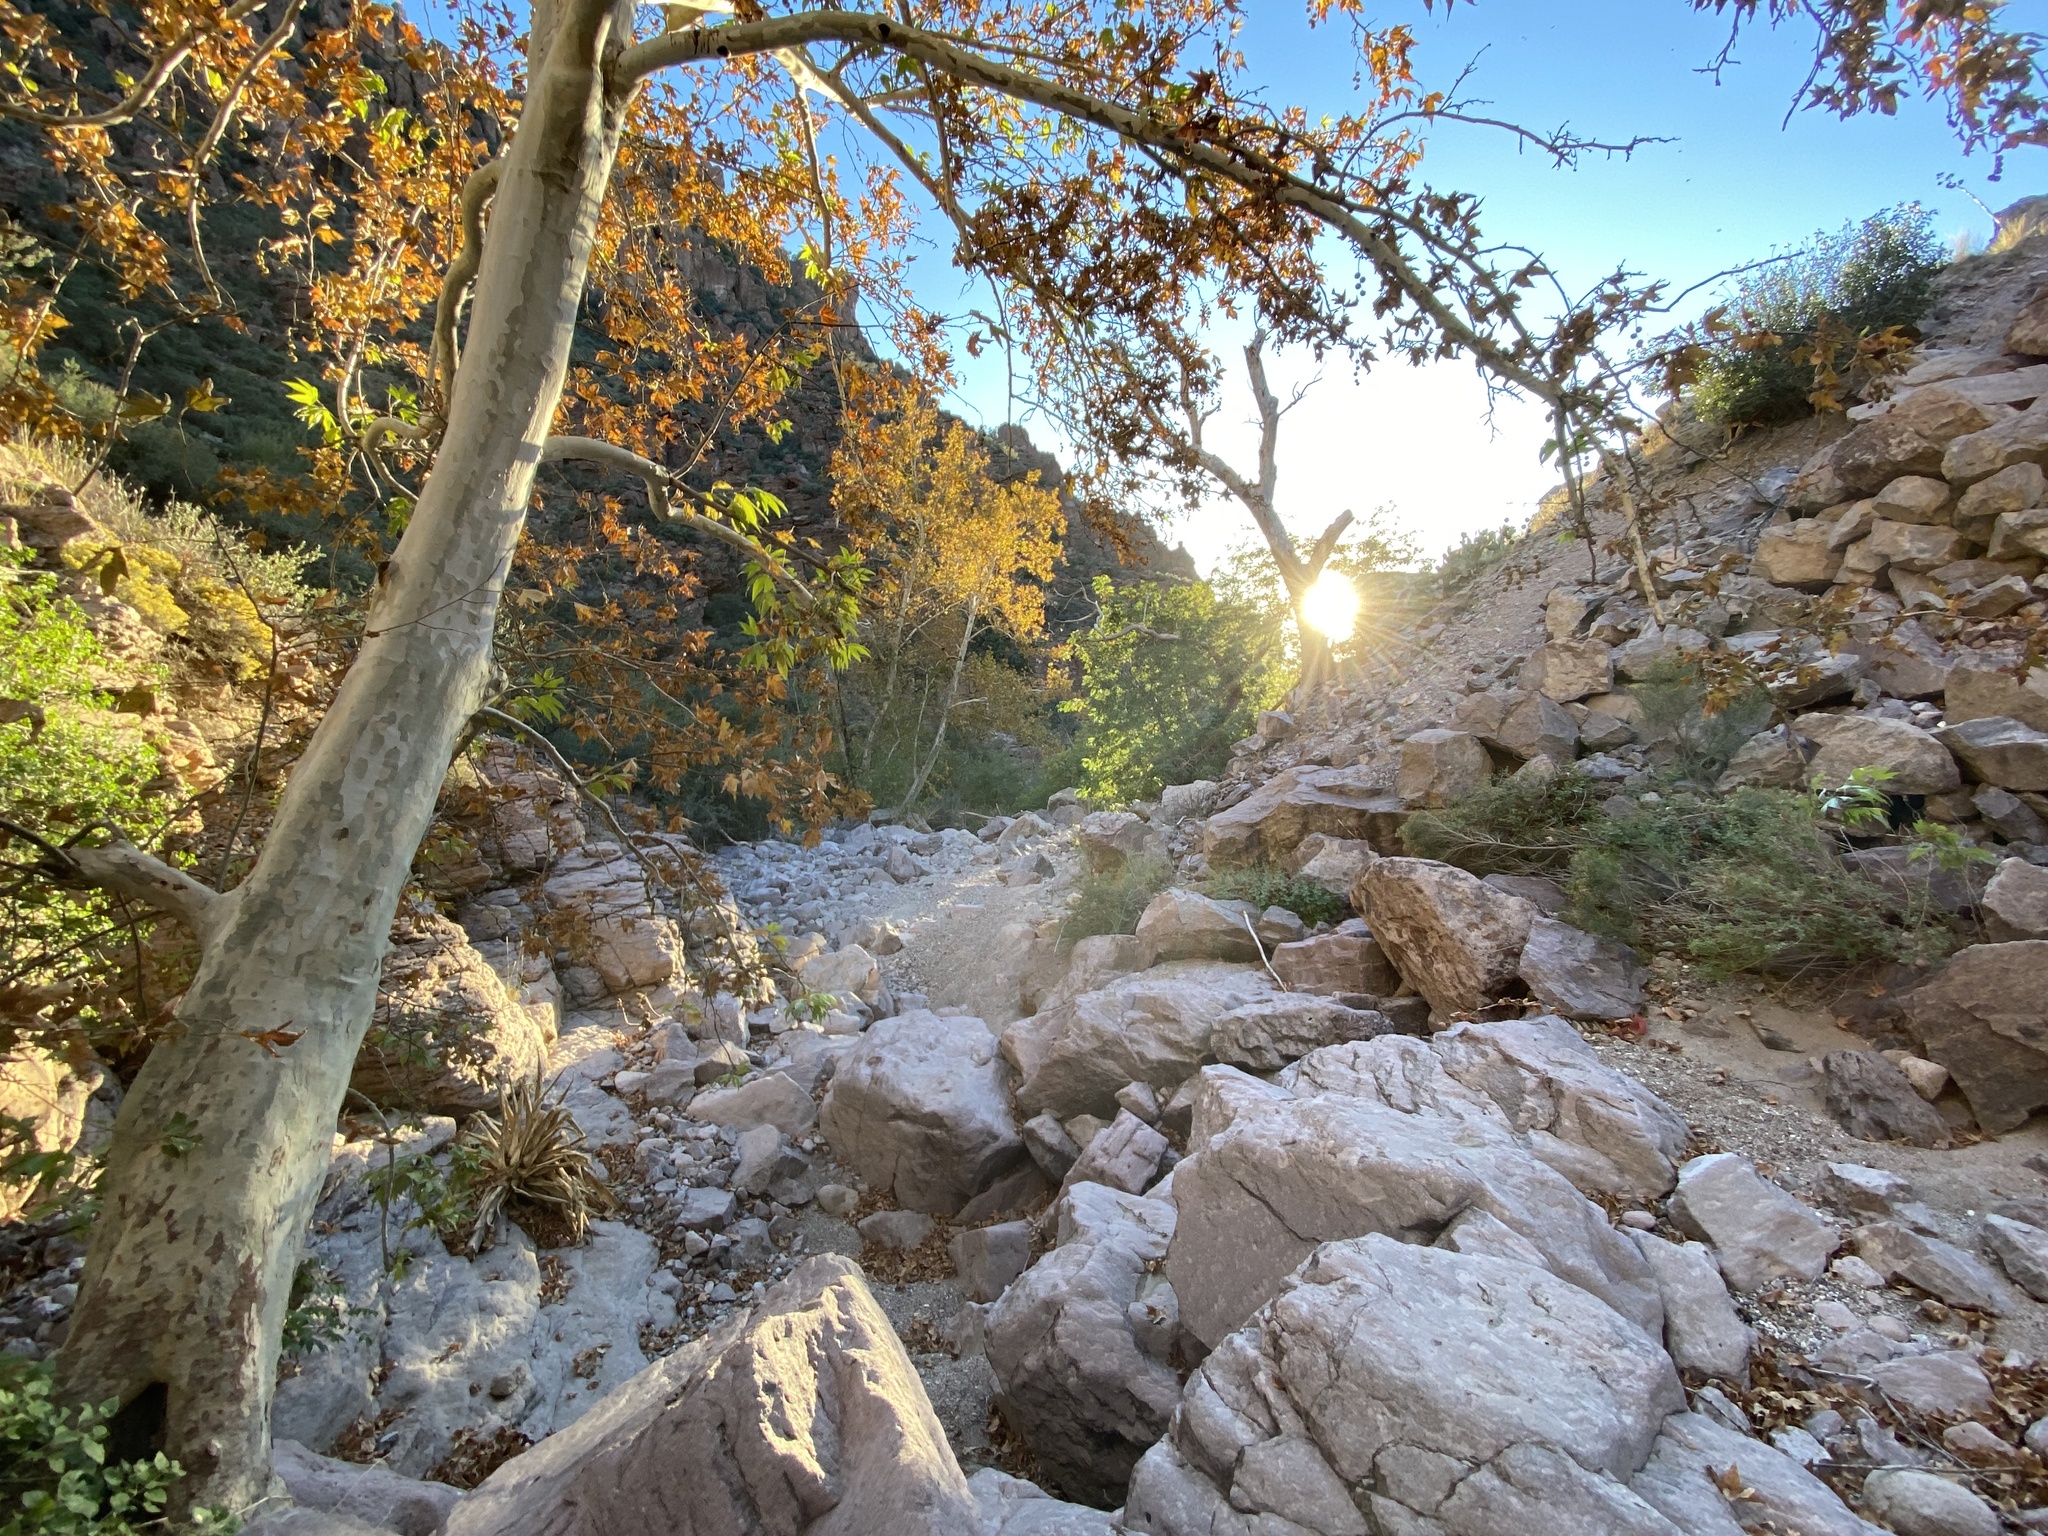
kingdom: Plantae
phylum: Tracheophyta
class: Magnoliopsida
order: Proteales
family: Platanaceae
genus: Platanus
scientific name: Platanus wrightii
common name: Arizona sycamore
